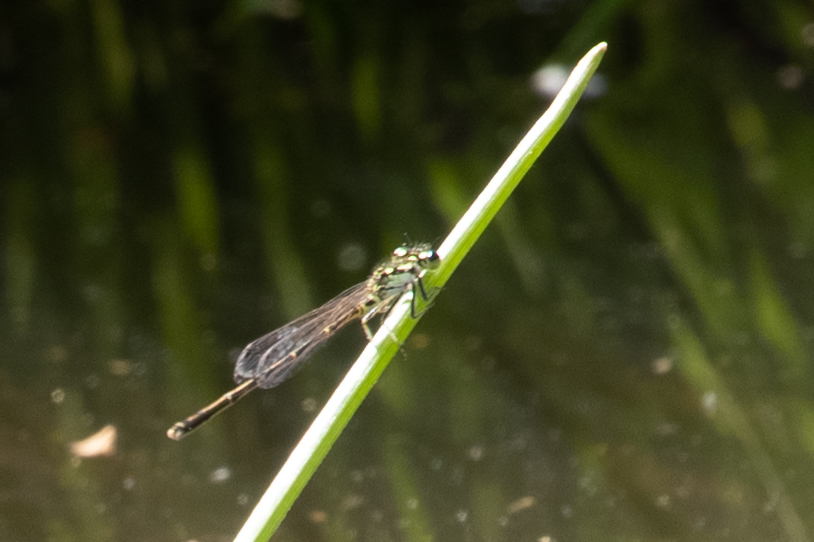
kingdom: Animalia
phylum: Arthropoda
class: Insecta
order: Odonata
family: Coenagrionidae
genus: Ischnura
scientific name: Ischnura posita
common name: Fragile forktail
